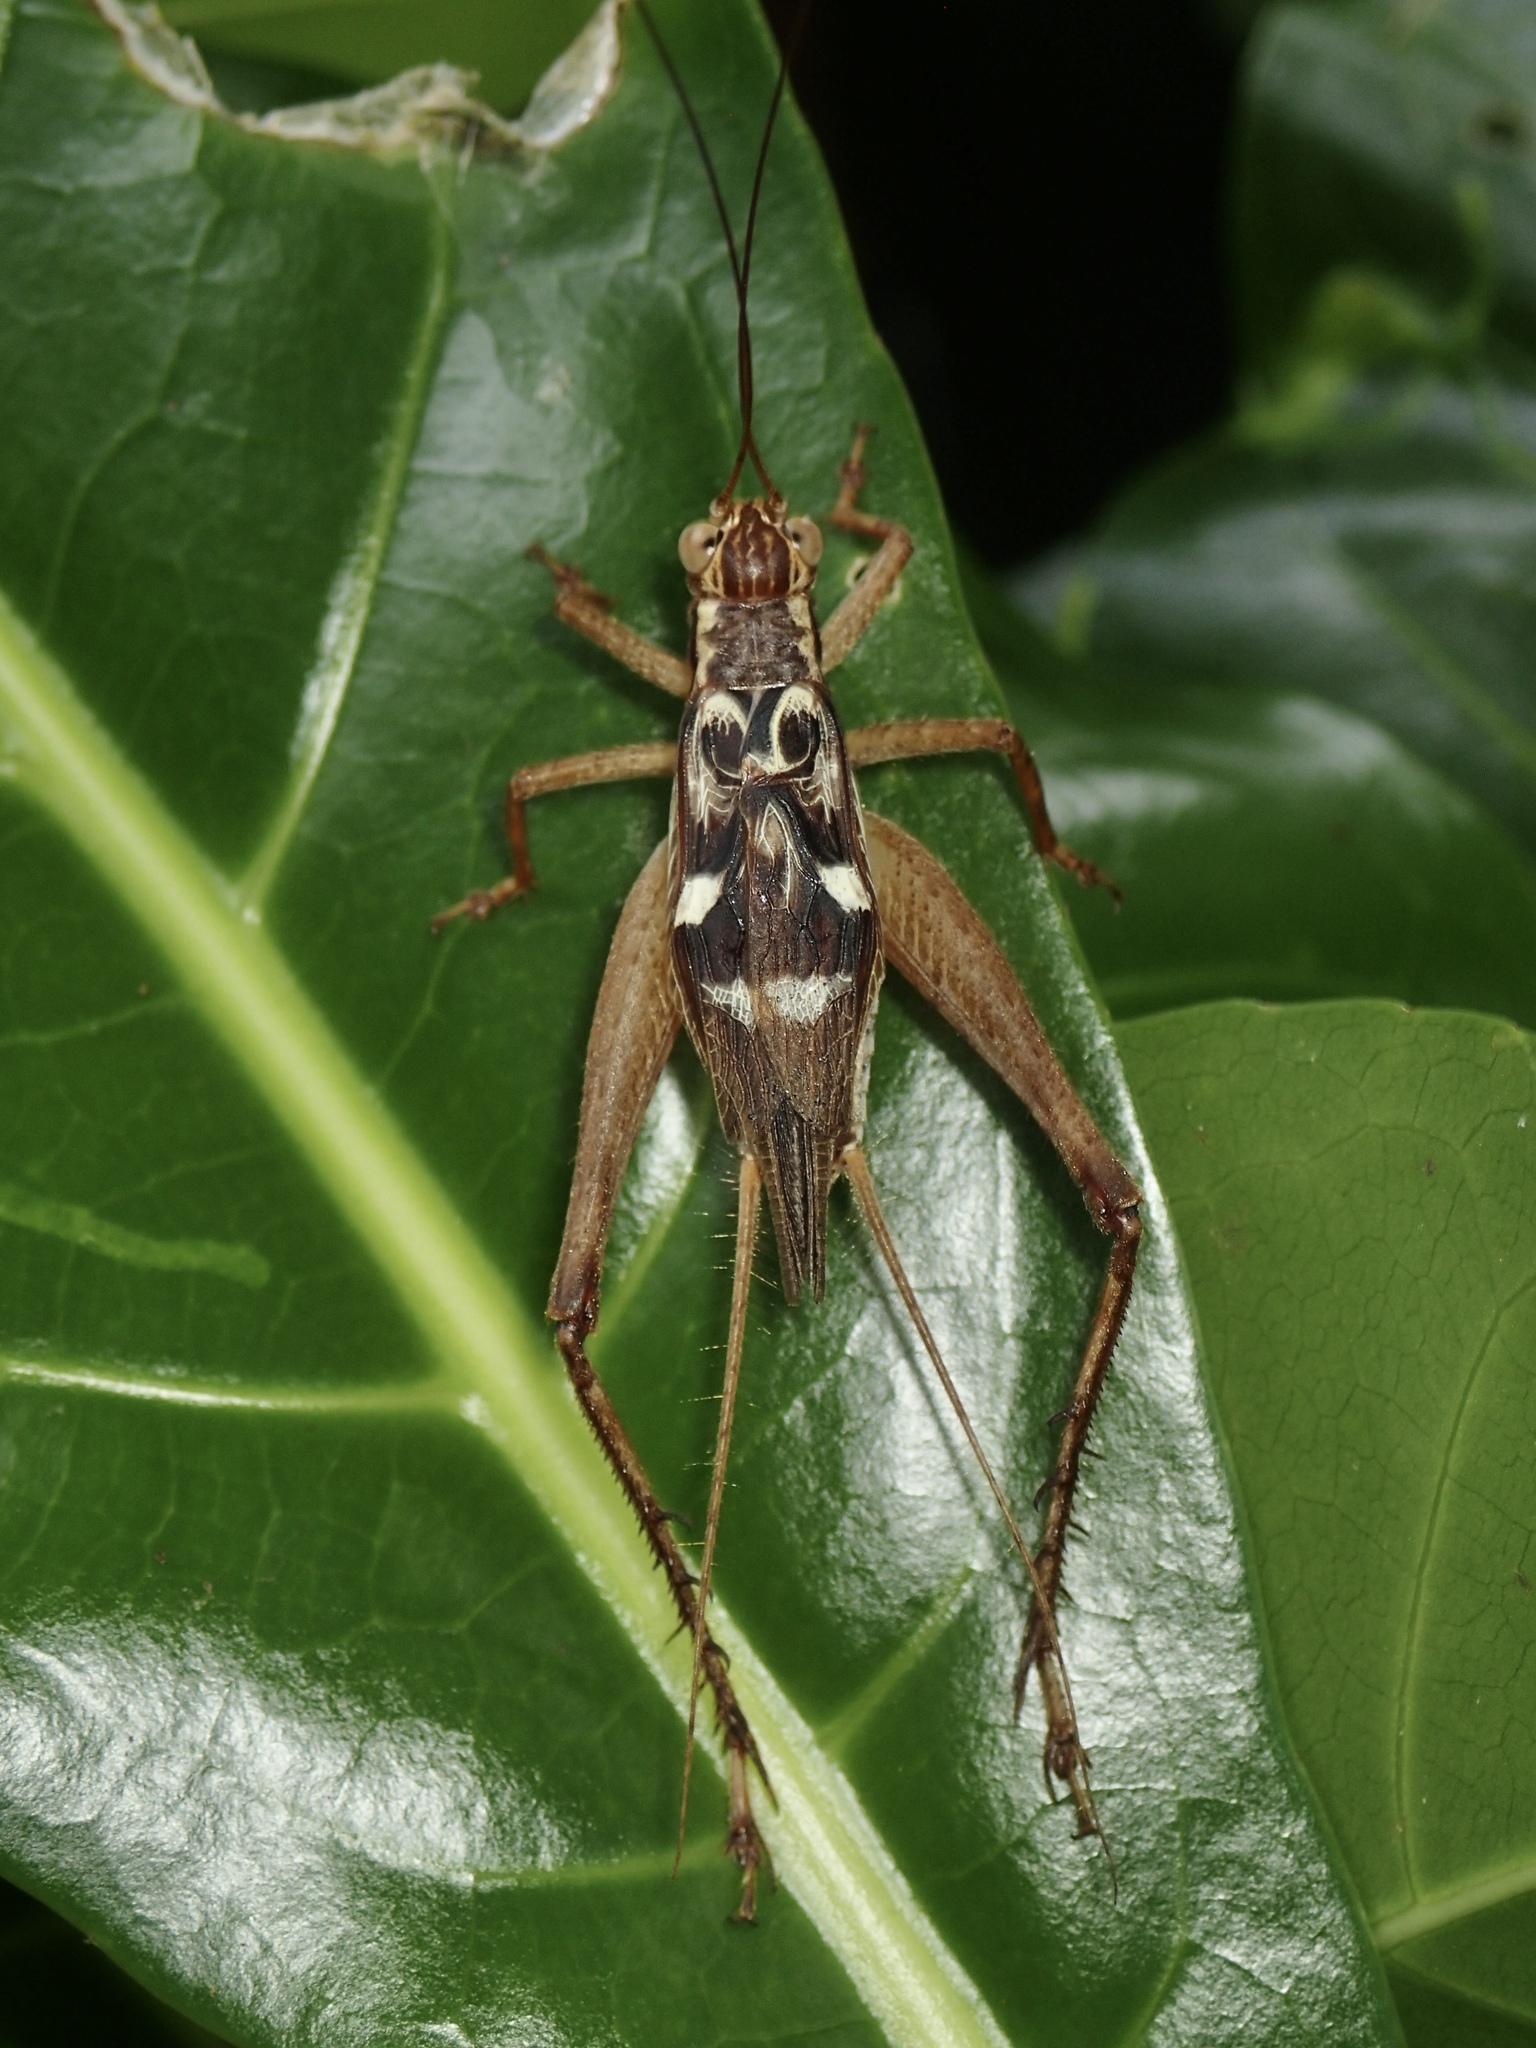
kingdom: Animalia
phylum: Arthropoda
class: Insecta
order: Orthoptera
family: Gryllidae
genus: Cardiodactylus
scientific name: Cardiodactylus novaeguineae
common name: Sad cricket
